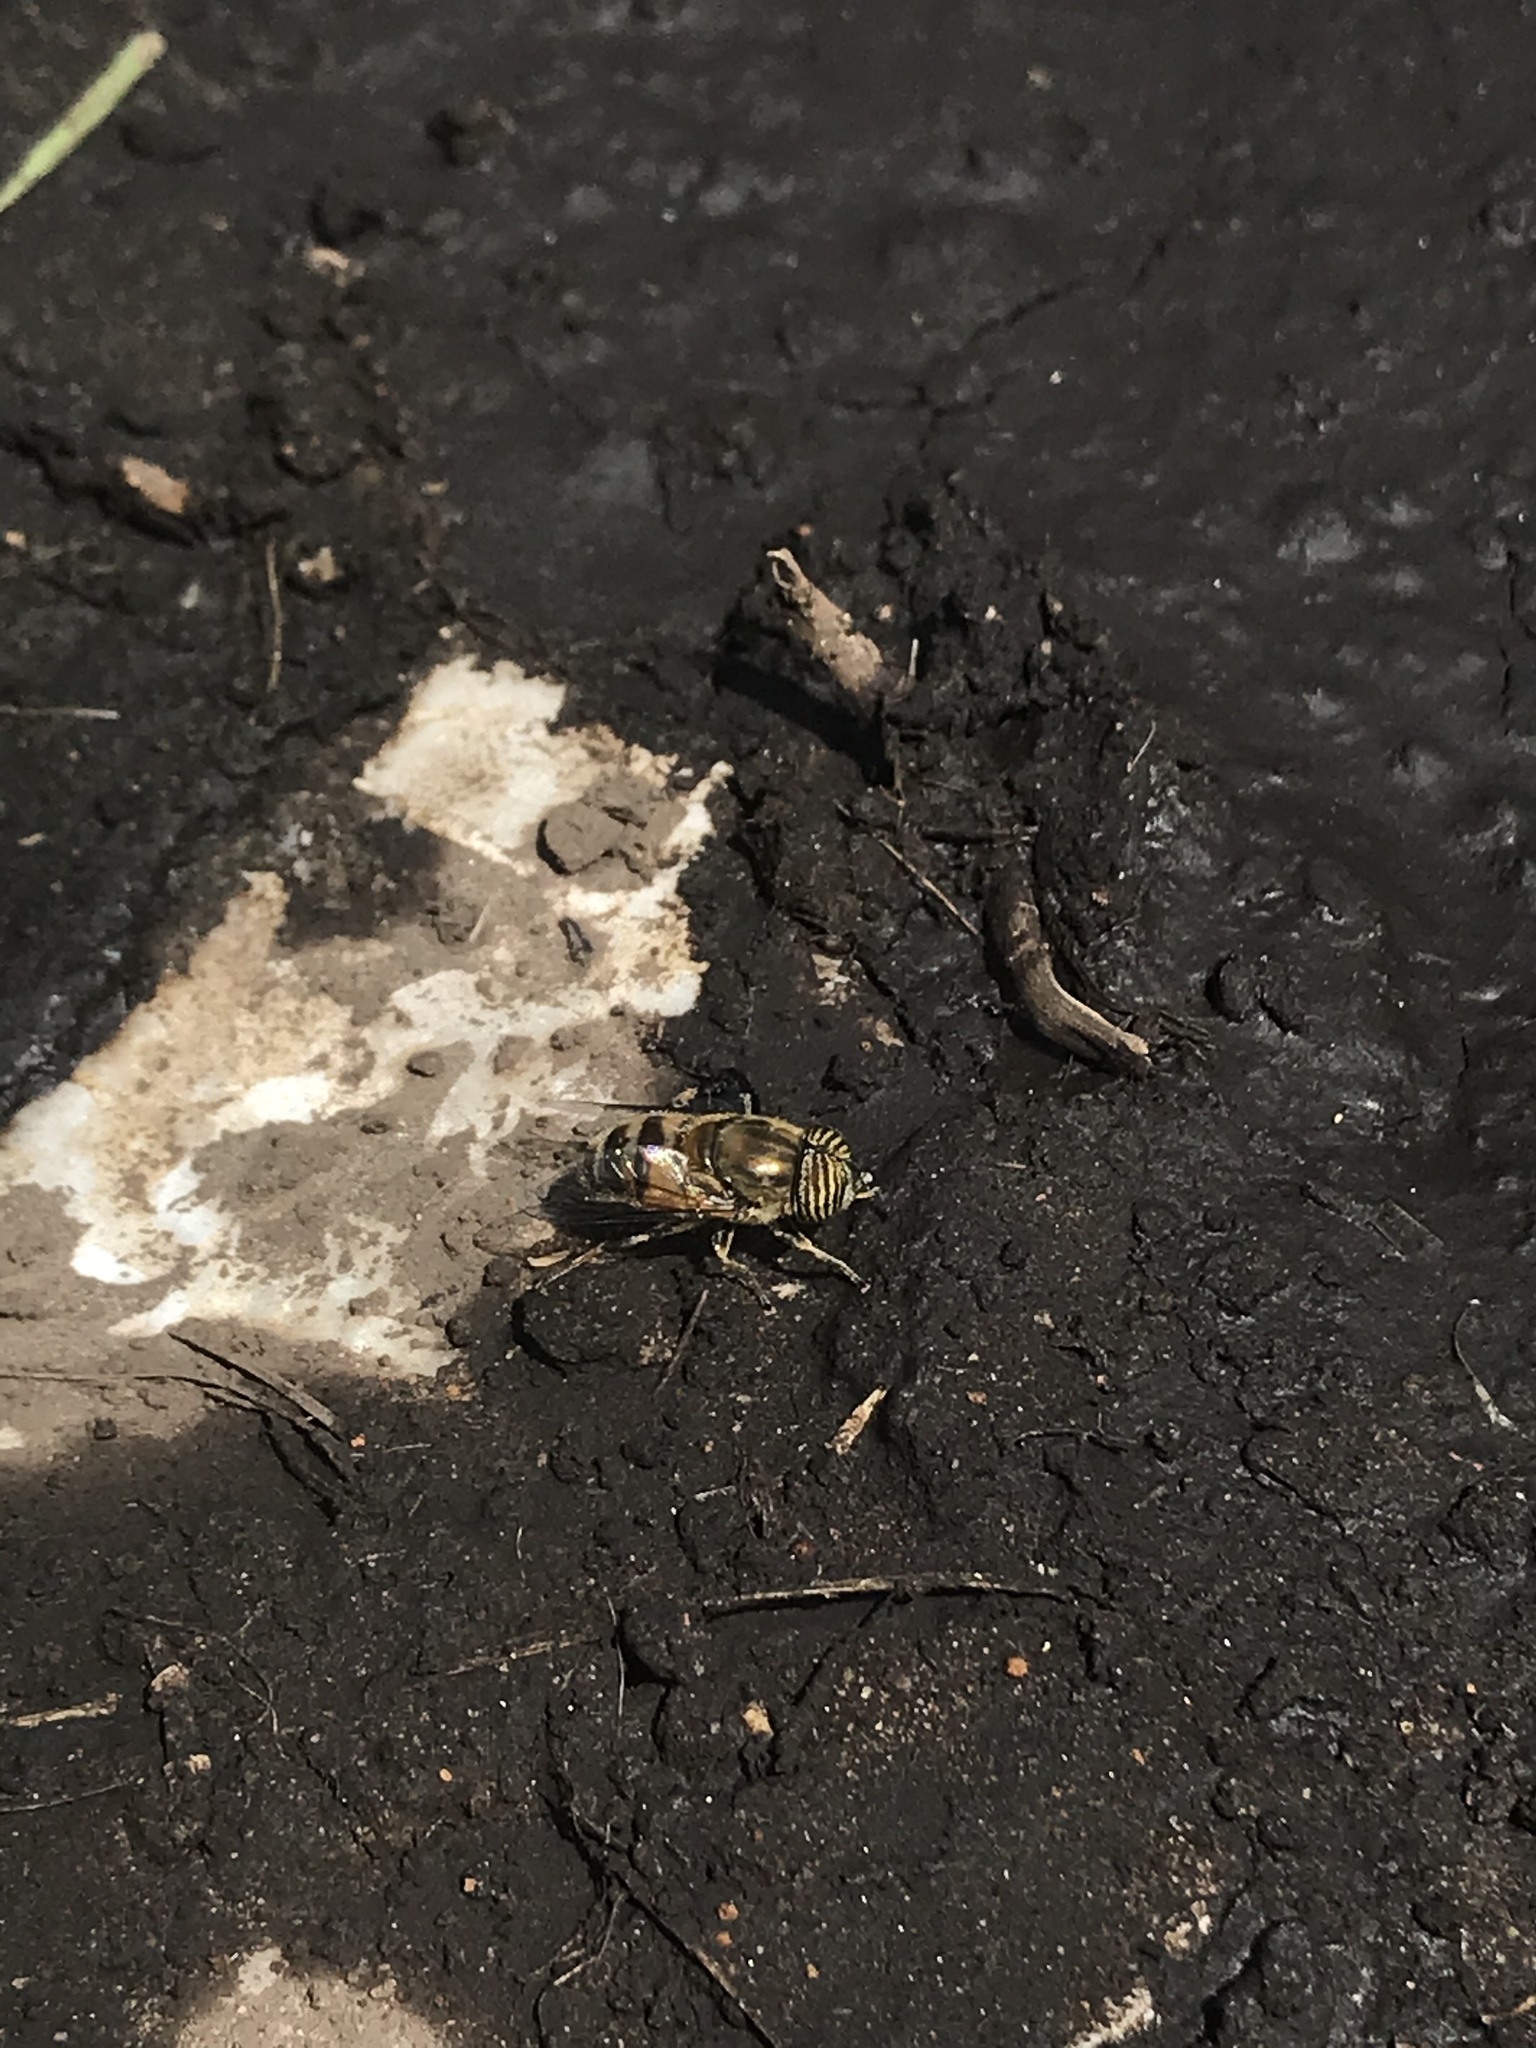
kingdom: Animalia
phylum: Arthropoda
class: Insecta
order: Diptera
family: Syrphidae
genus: Eristalinus
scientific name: Eristalinus taeniops
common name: Syrphid fly
